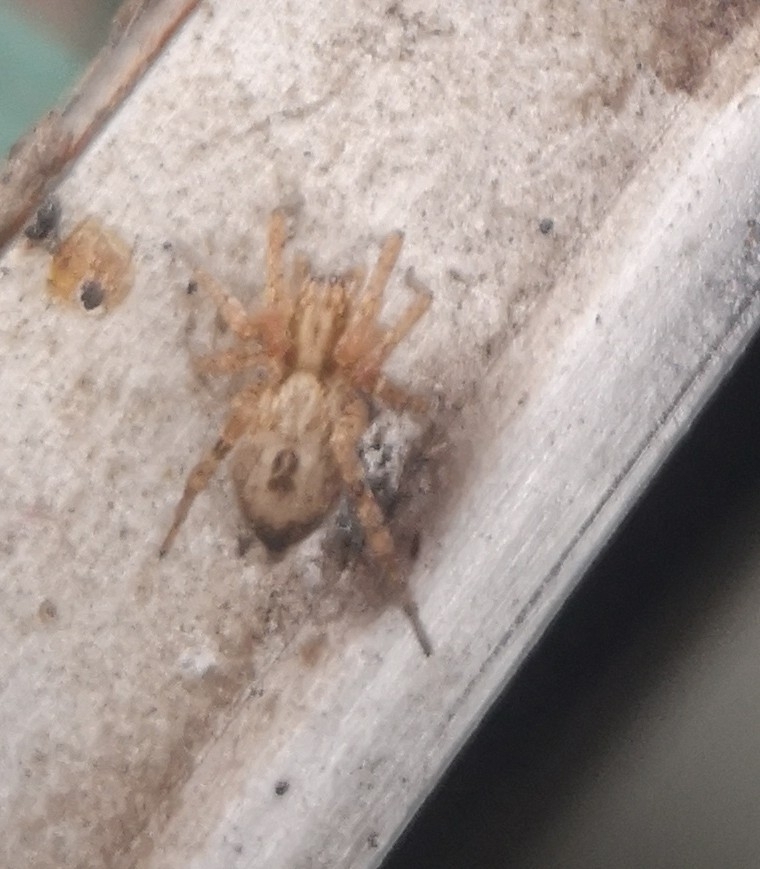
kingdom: Animalia
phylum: Arthropoda
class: Arachnida
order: Araneae
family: Anyphaenidae
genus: Anyphaena
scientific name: Anyphaena accentuata
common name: Buzzing spider
